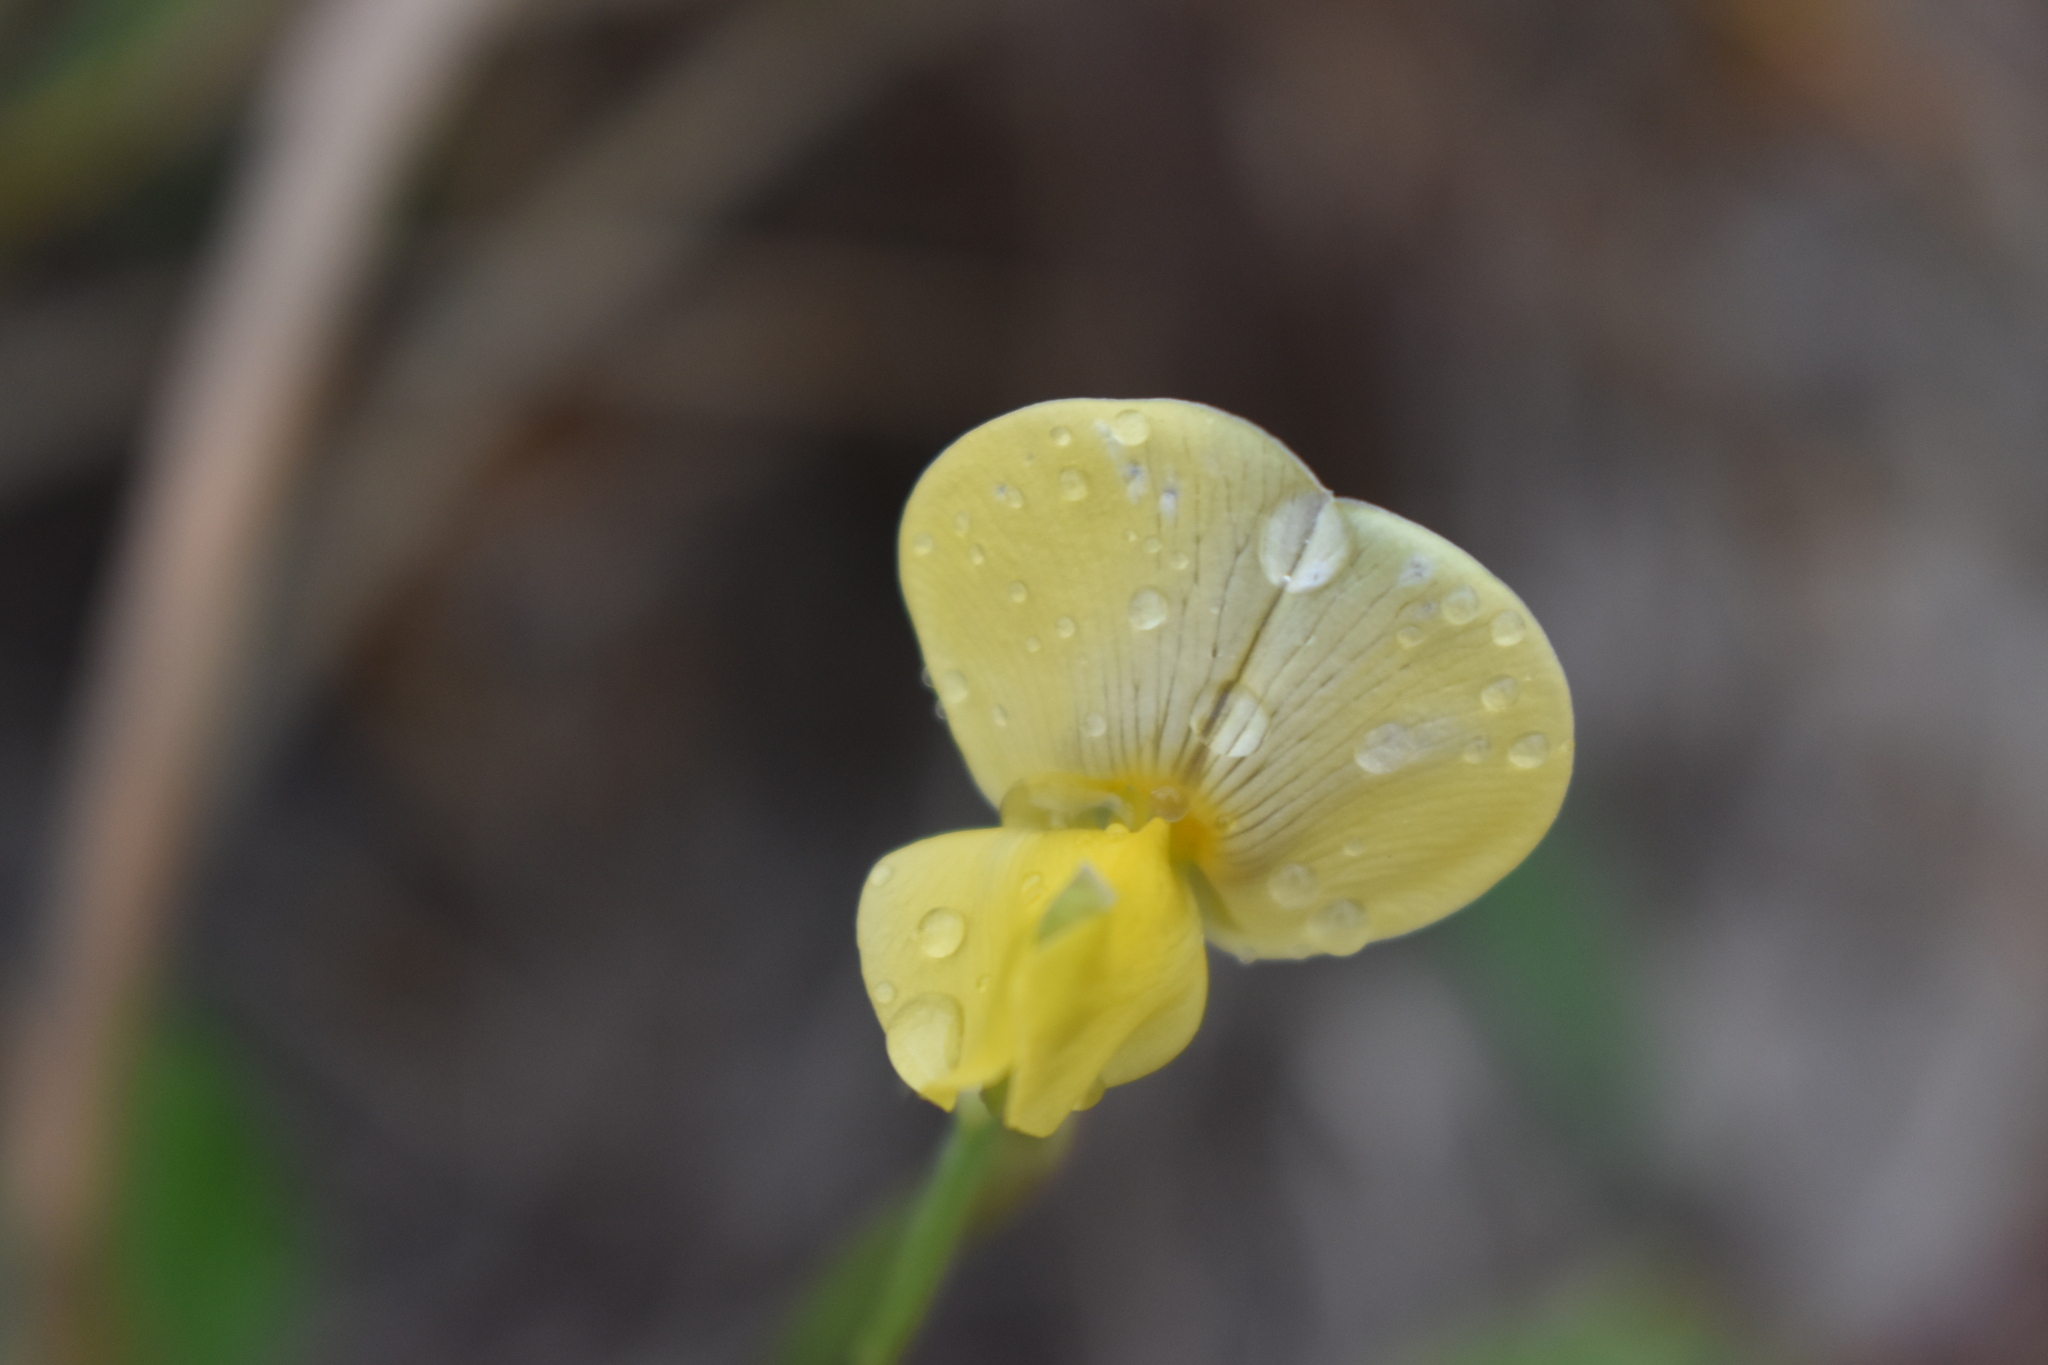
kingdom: Plantae
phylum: Tracheophyta
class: Magnoliopsida
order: Fabales
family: Fabaceae
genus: Vigna
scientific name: Vigna luteola
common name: Hairypod cowpea
